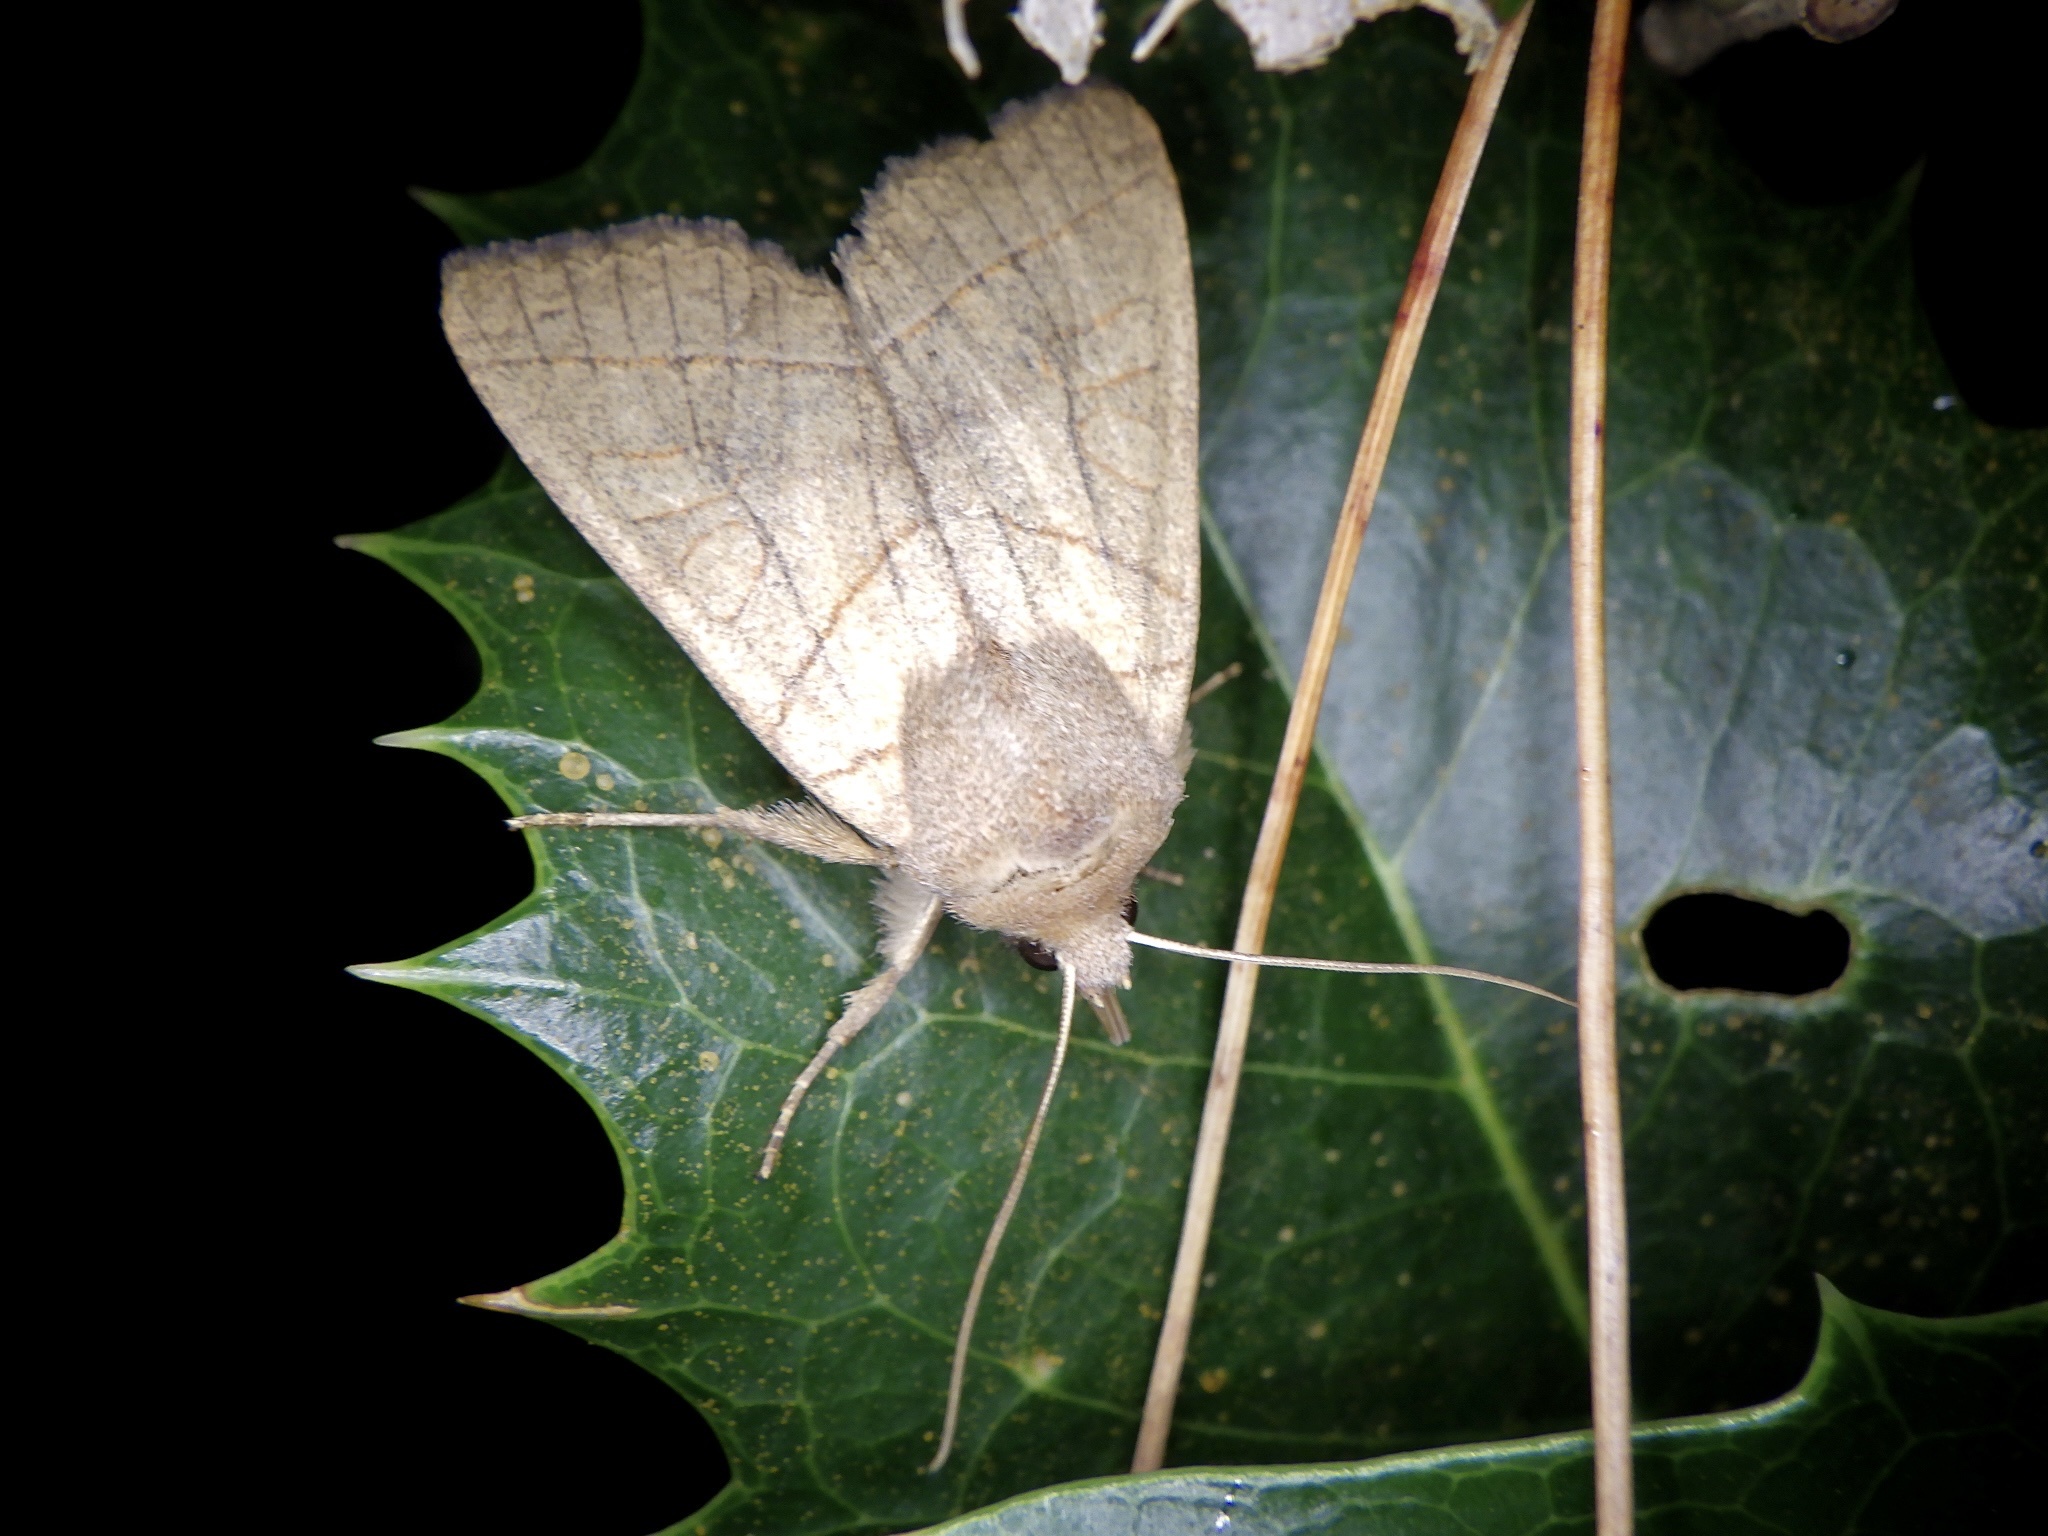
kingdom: Animalia
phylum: Arthropoda
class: Insecta
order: Lepidoptera
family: Noctuidae
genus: Telorta
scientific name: Telorta divergens
